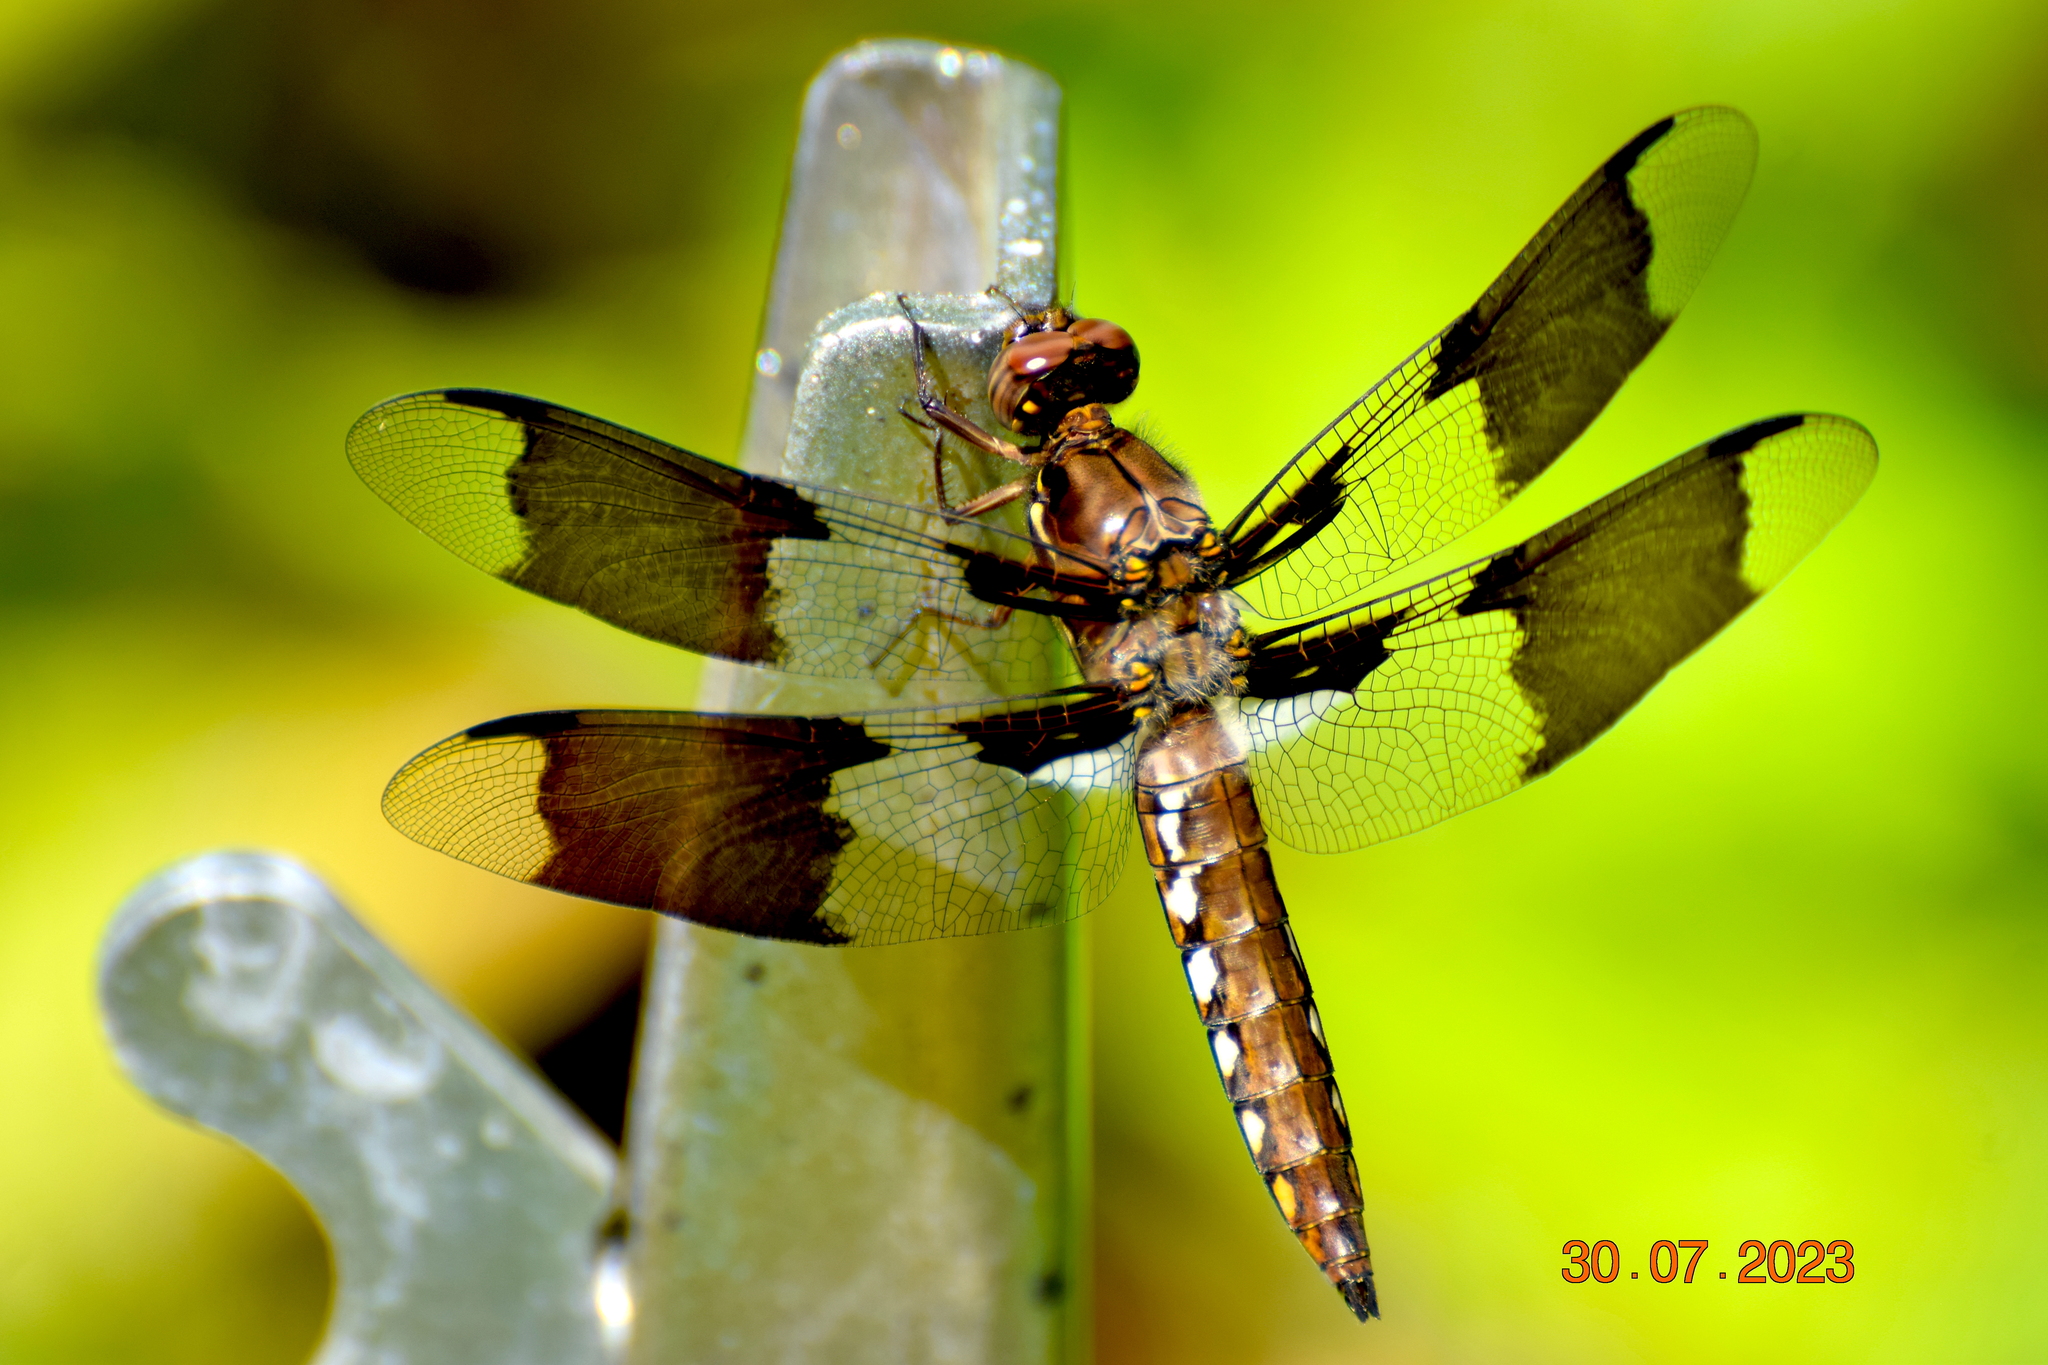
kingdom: Animalia
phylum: Arthropoda
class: Insecta
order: Odonata
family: Libellulidae
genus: Plathemis
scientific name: Plathemis lydia
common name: Common whitetail
